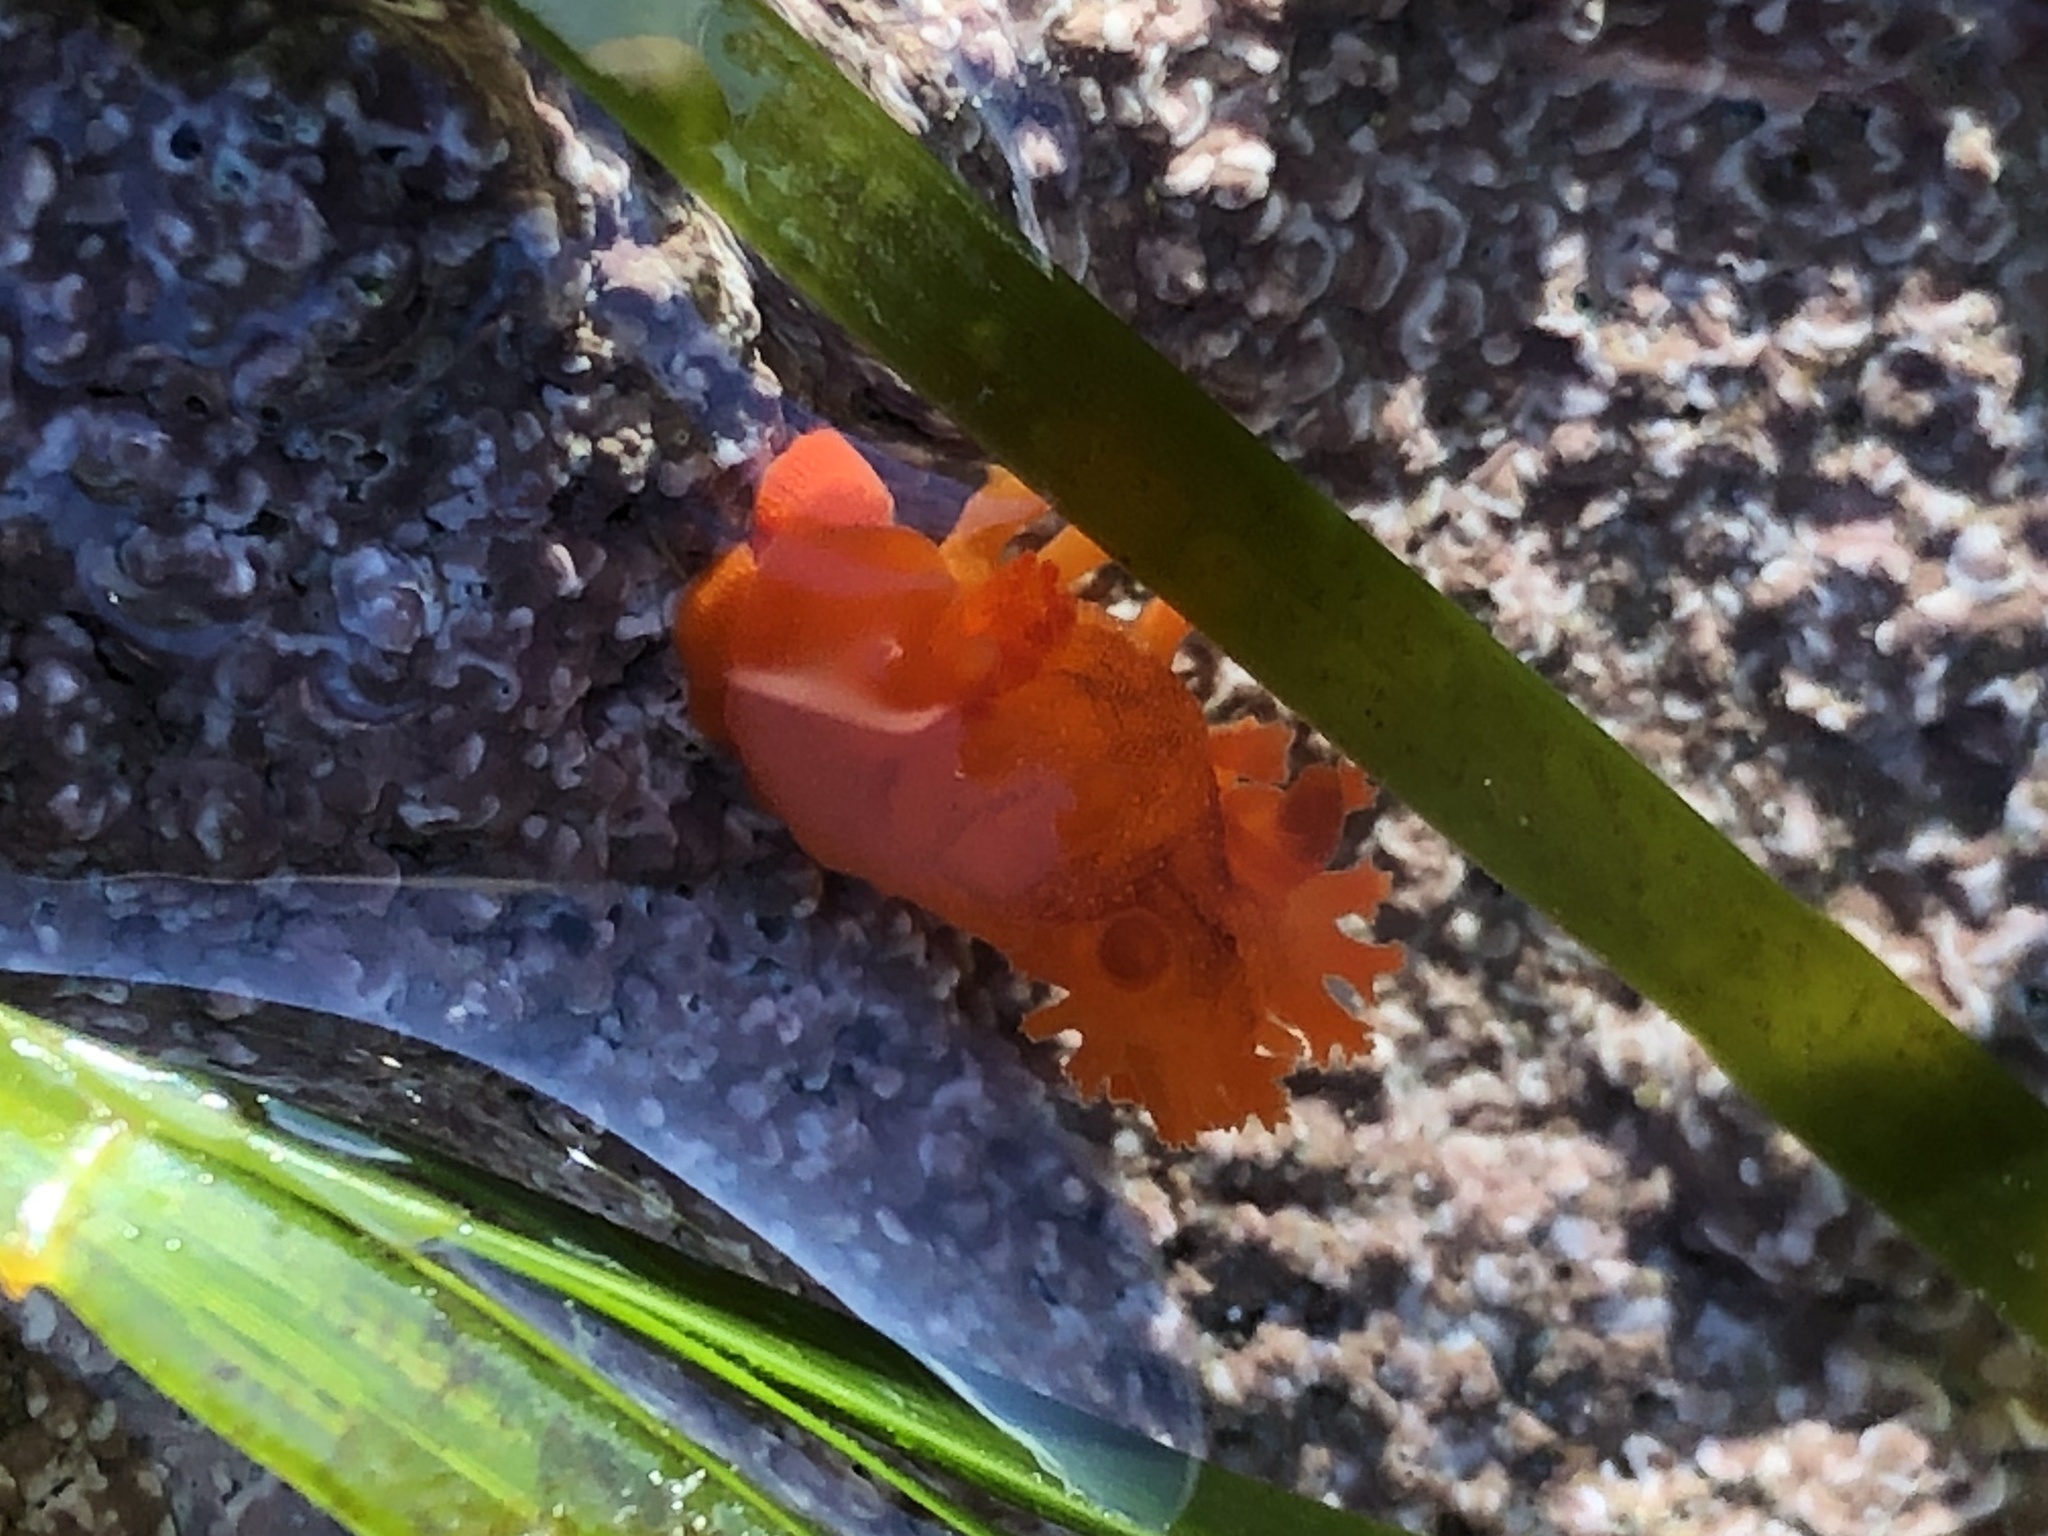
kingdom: Animalia
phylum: Mollusca
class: Gastropoda
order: Nudibranchia
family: Polyceridae
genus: Triopha
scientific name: Triopha maculata
